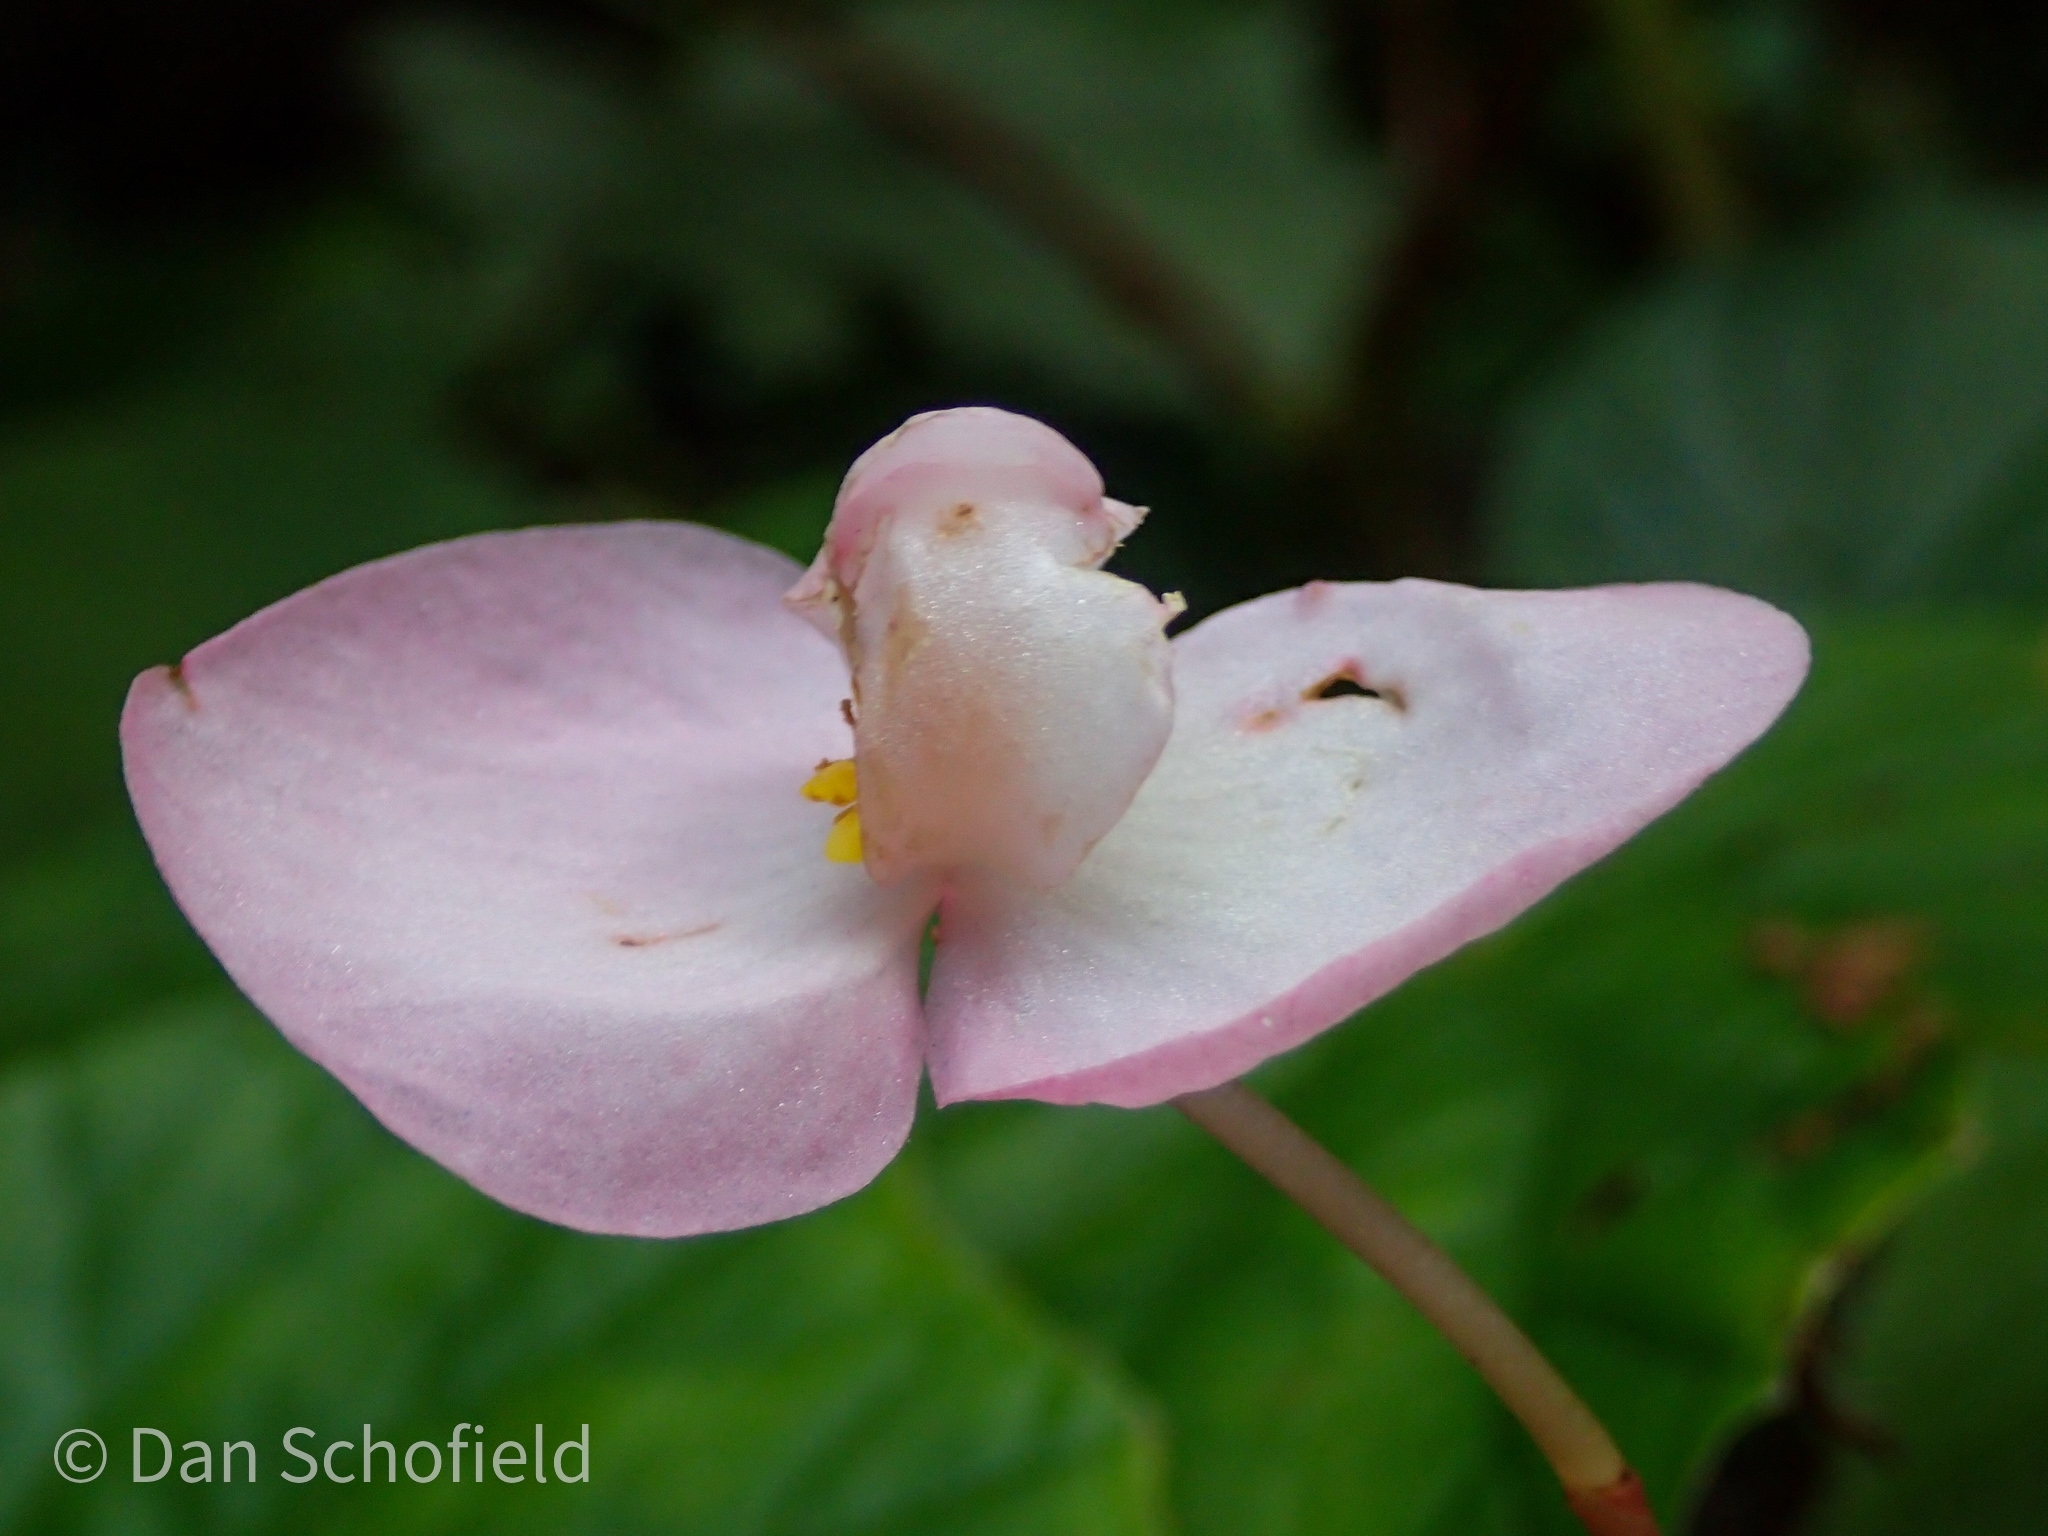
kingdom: Plantae
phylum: Tracheophyta
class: Magnoliopsida
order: Cucurbitales
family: Begoniaceae
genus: Begonia
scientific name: Begonia chitoensis
